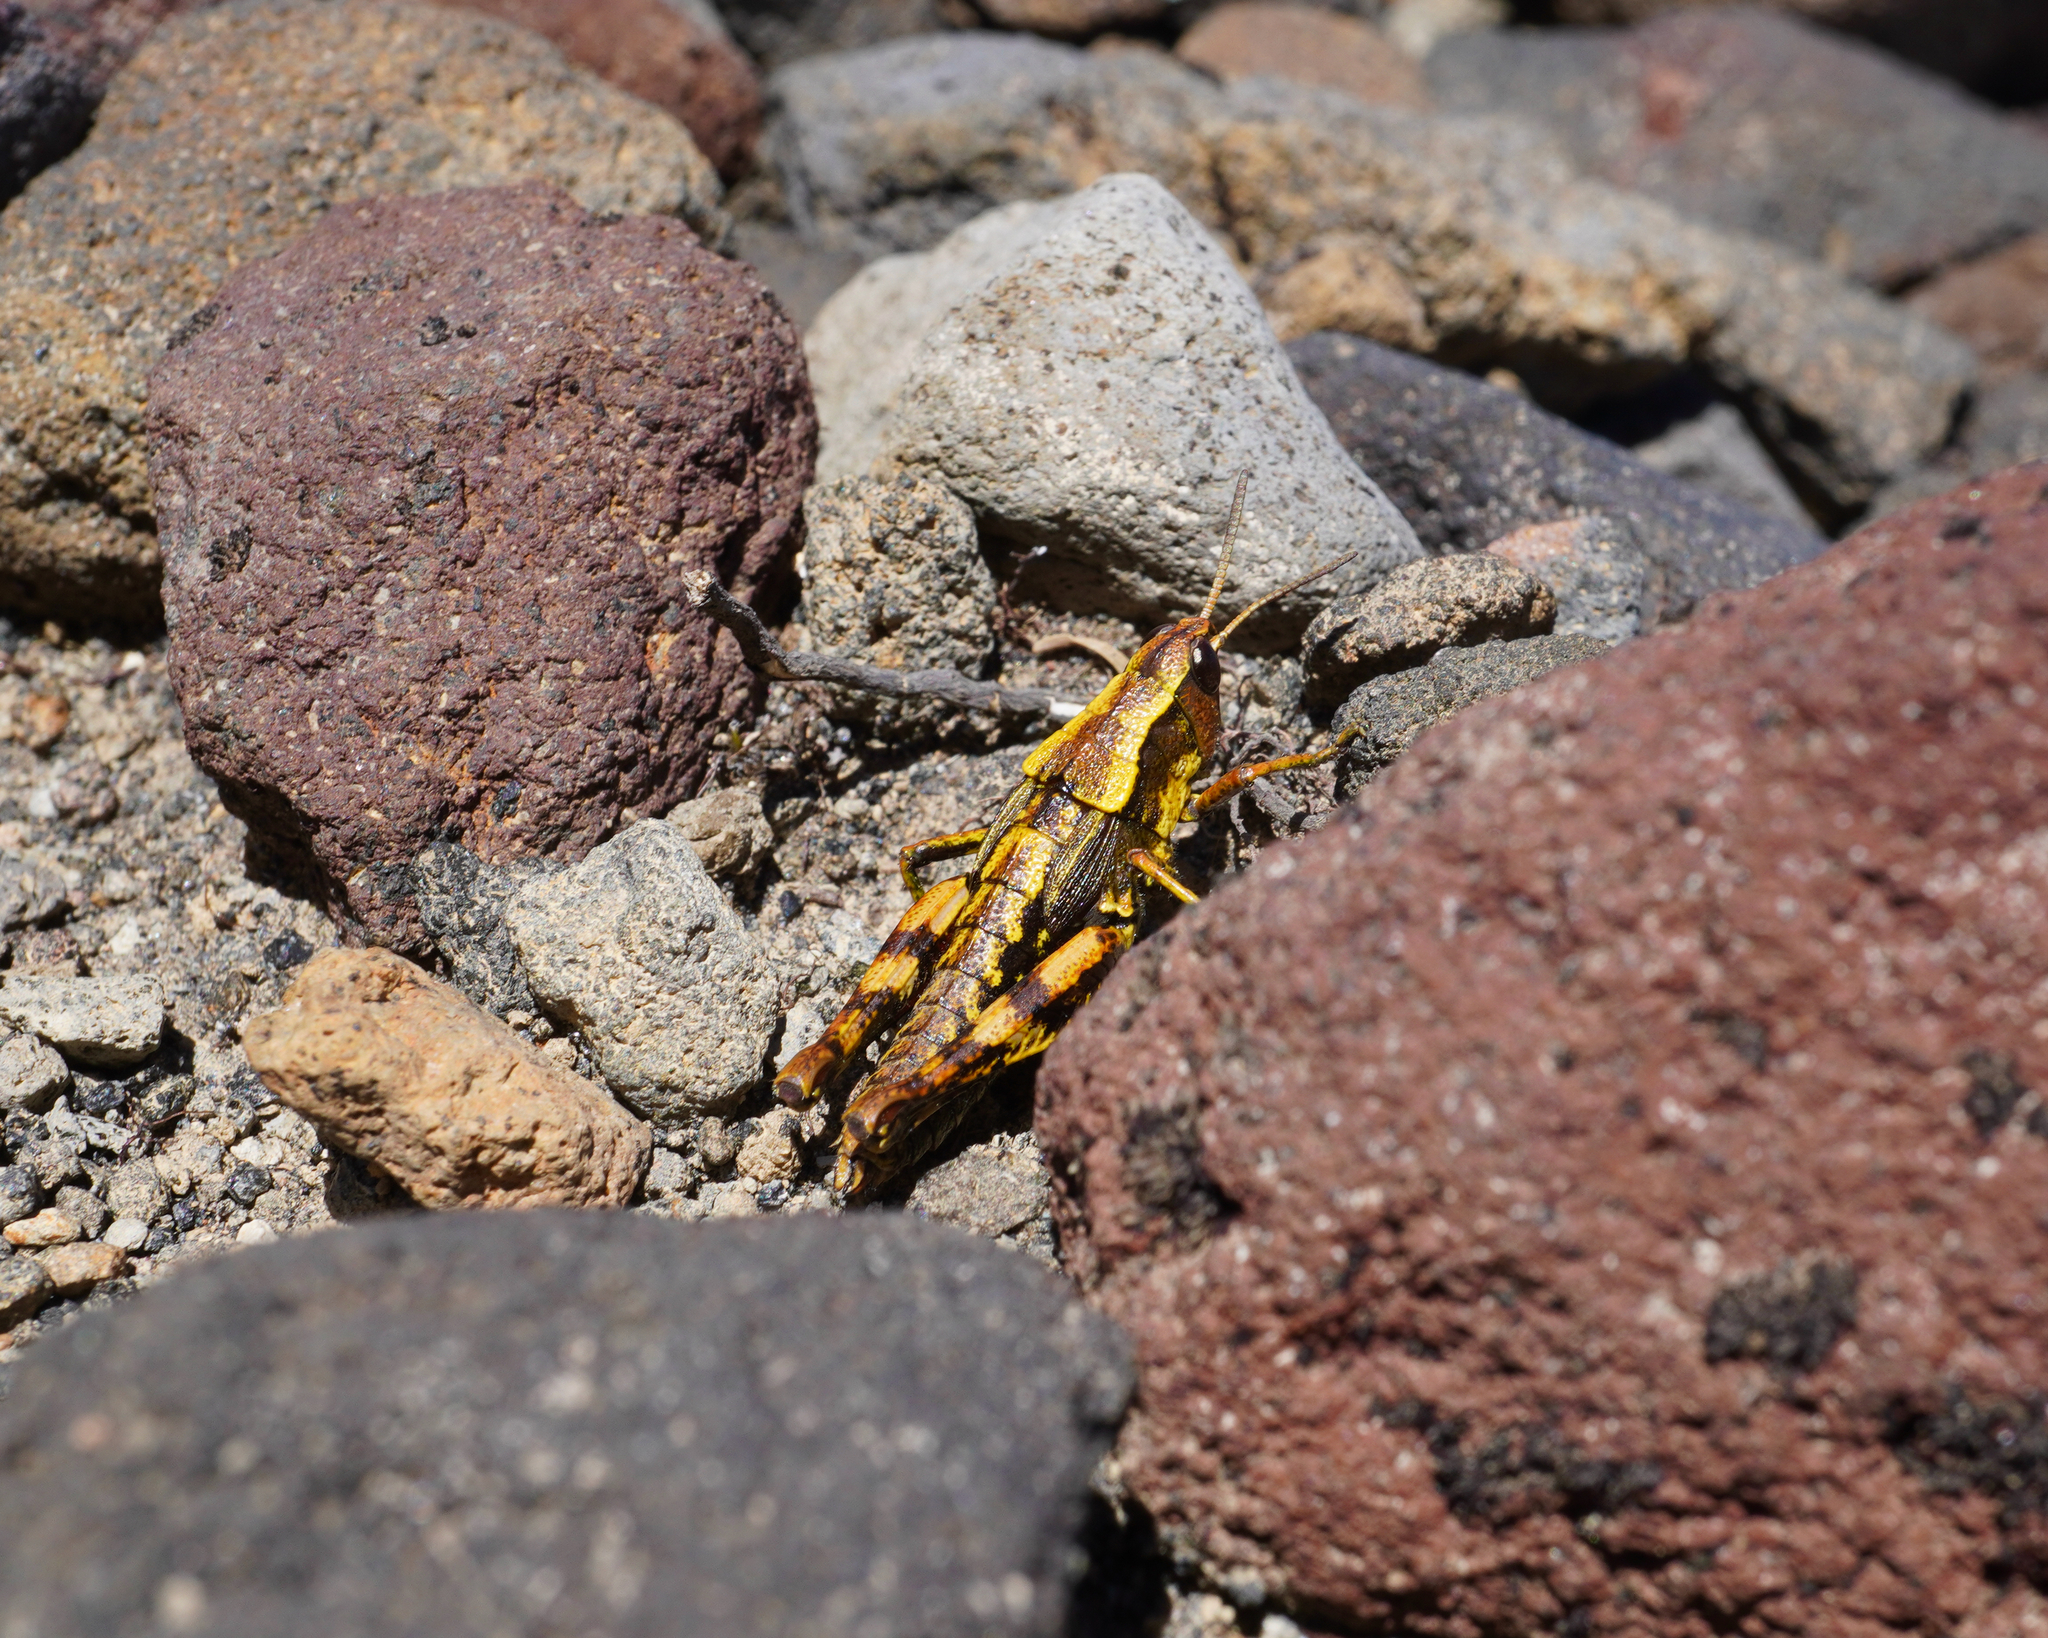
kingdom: Animalia
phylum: Arthropoda
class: Insecta
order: Orthoptera
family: Acrididae
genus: Sigaus
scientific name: Sigaus piliferus
